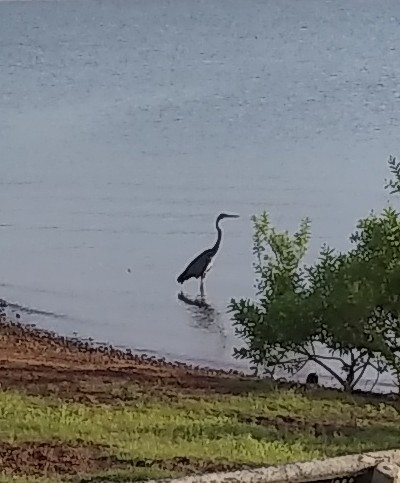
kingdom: Animalia
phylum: Chordata
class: Aves
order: Pelecaniformes
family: Ardeidae
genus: Ardea
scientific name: Ardea herodias
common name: Great blue heron
